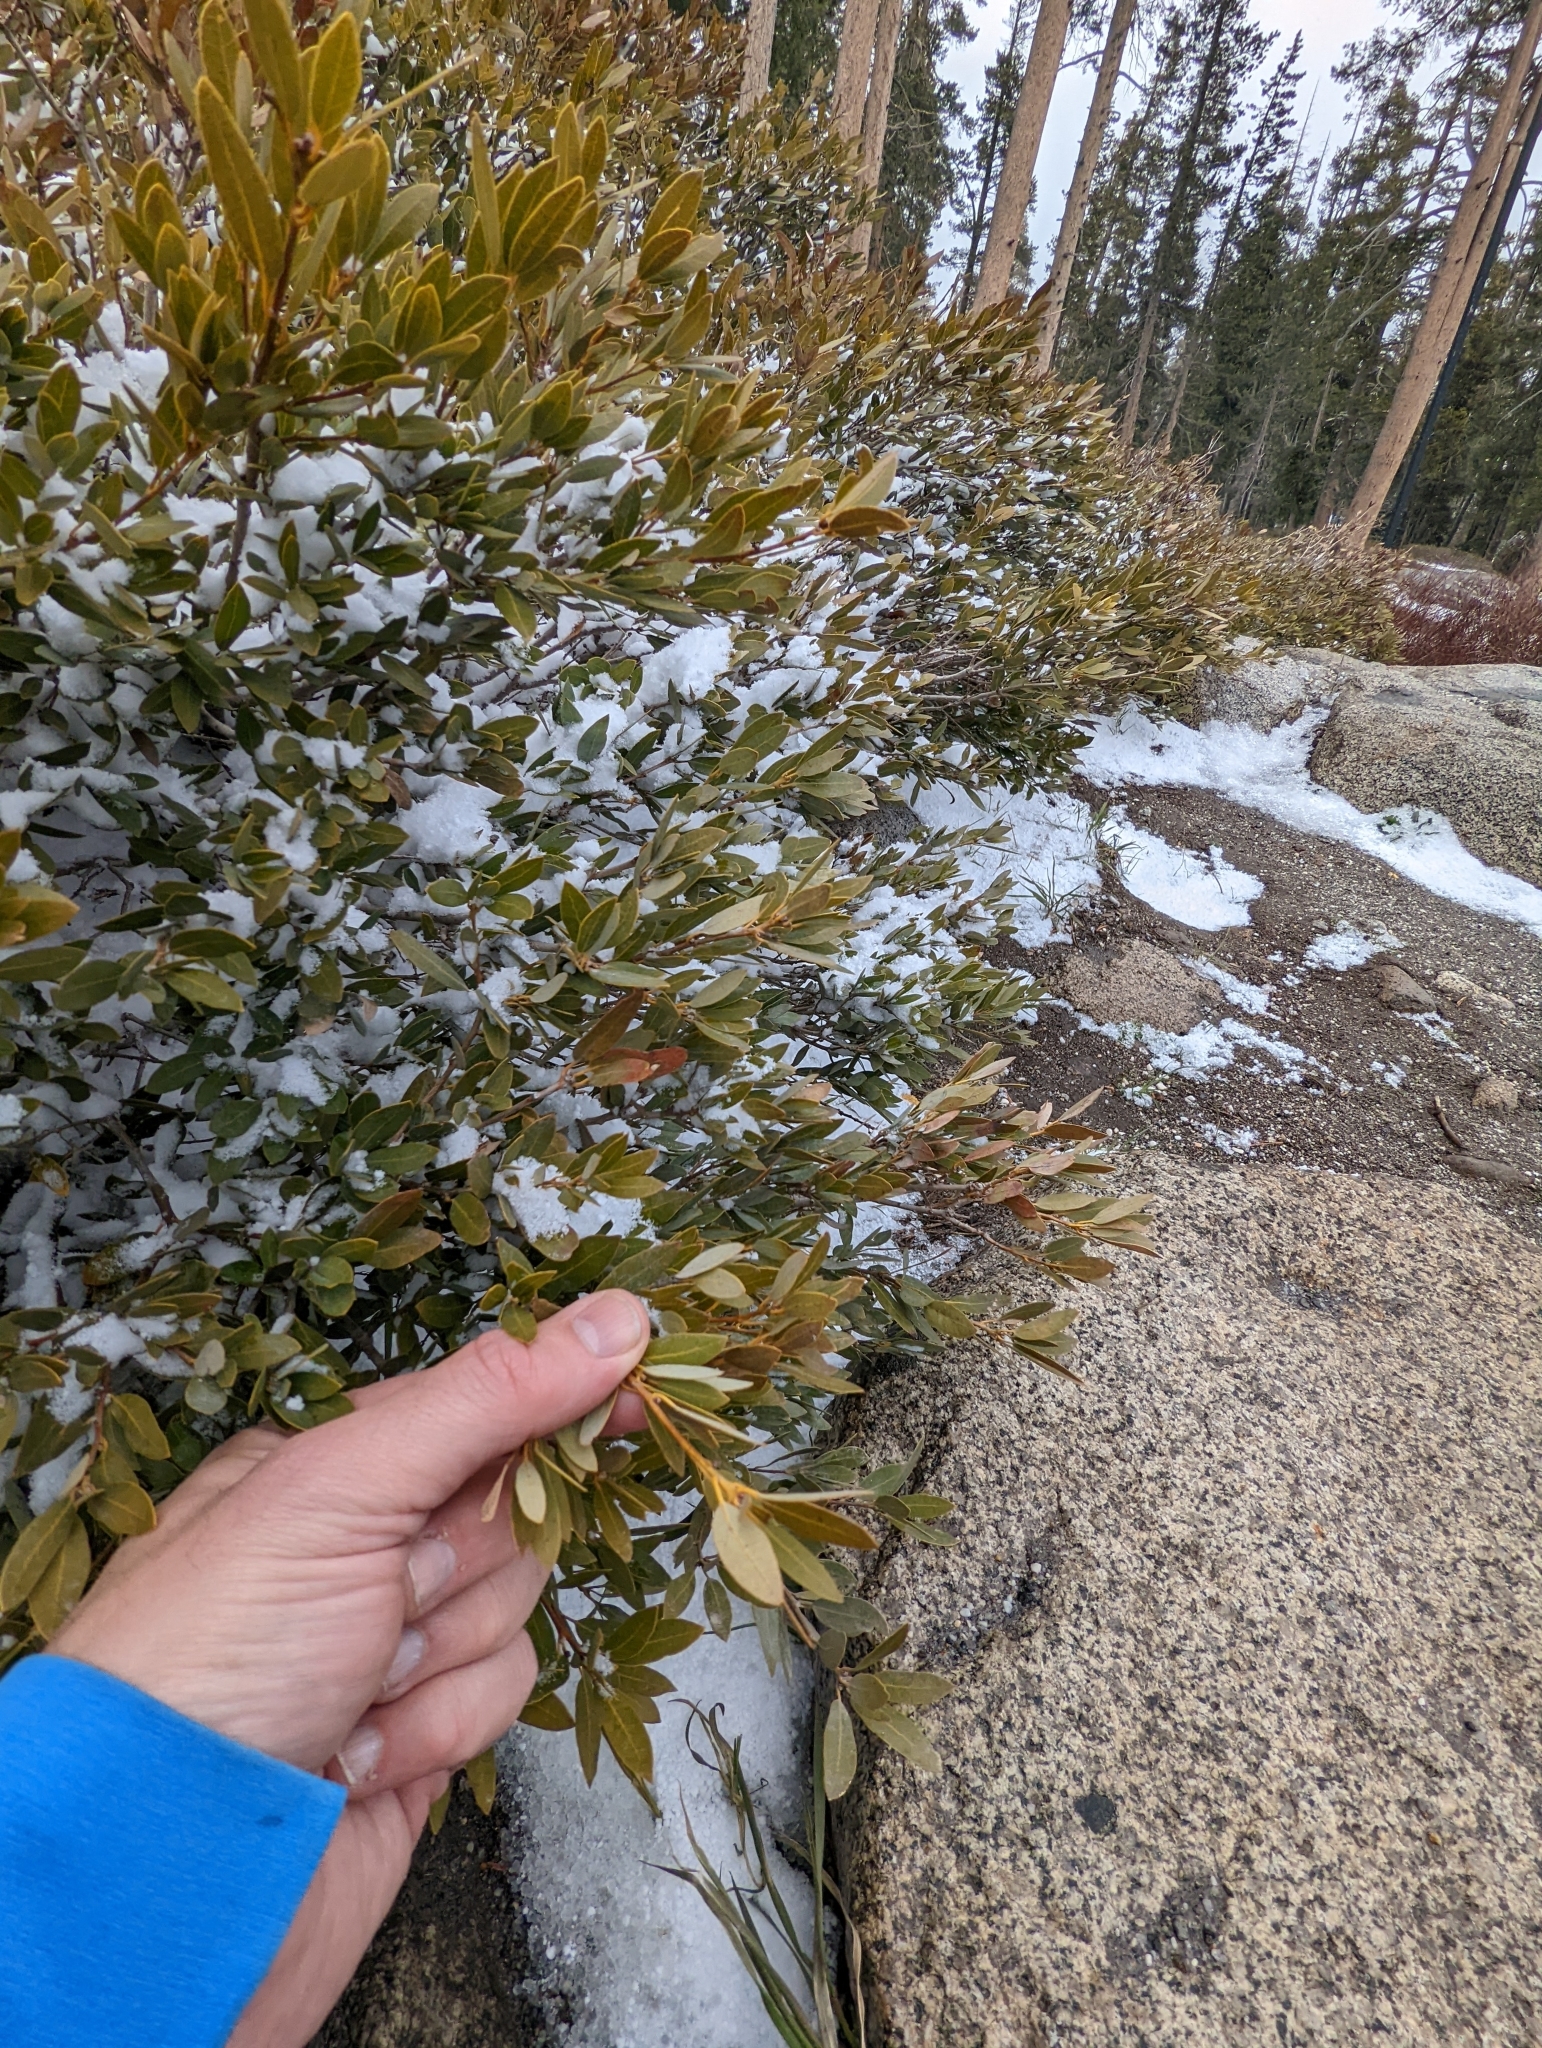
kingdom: Plantae
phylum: Tracheophyta
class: Magnoliopsida
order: Fagales
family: Fagaceae
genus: Quercus
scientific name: Quercus vacciniifolia
